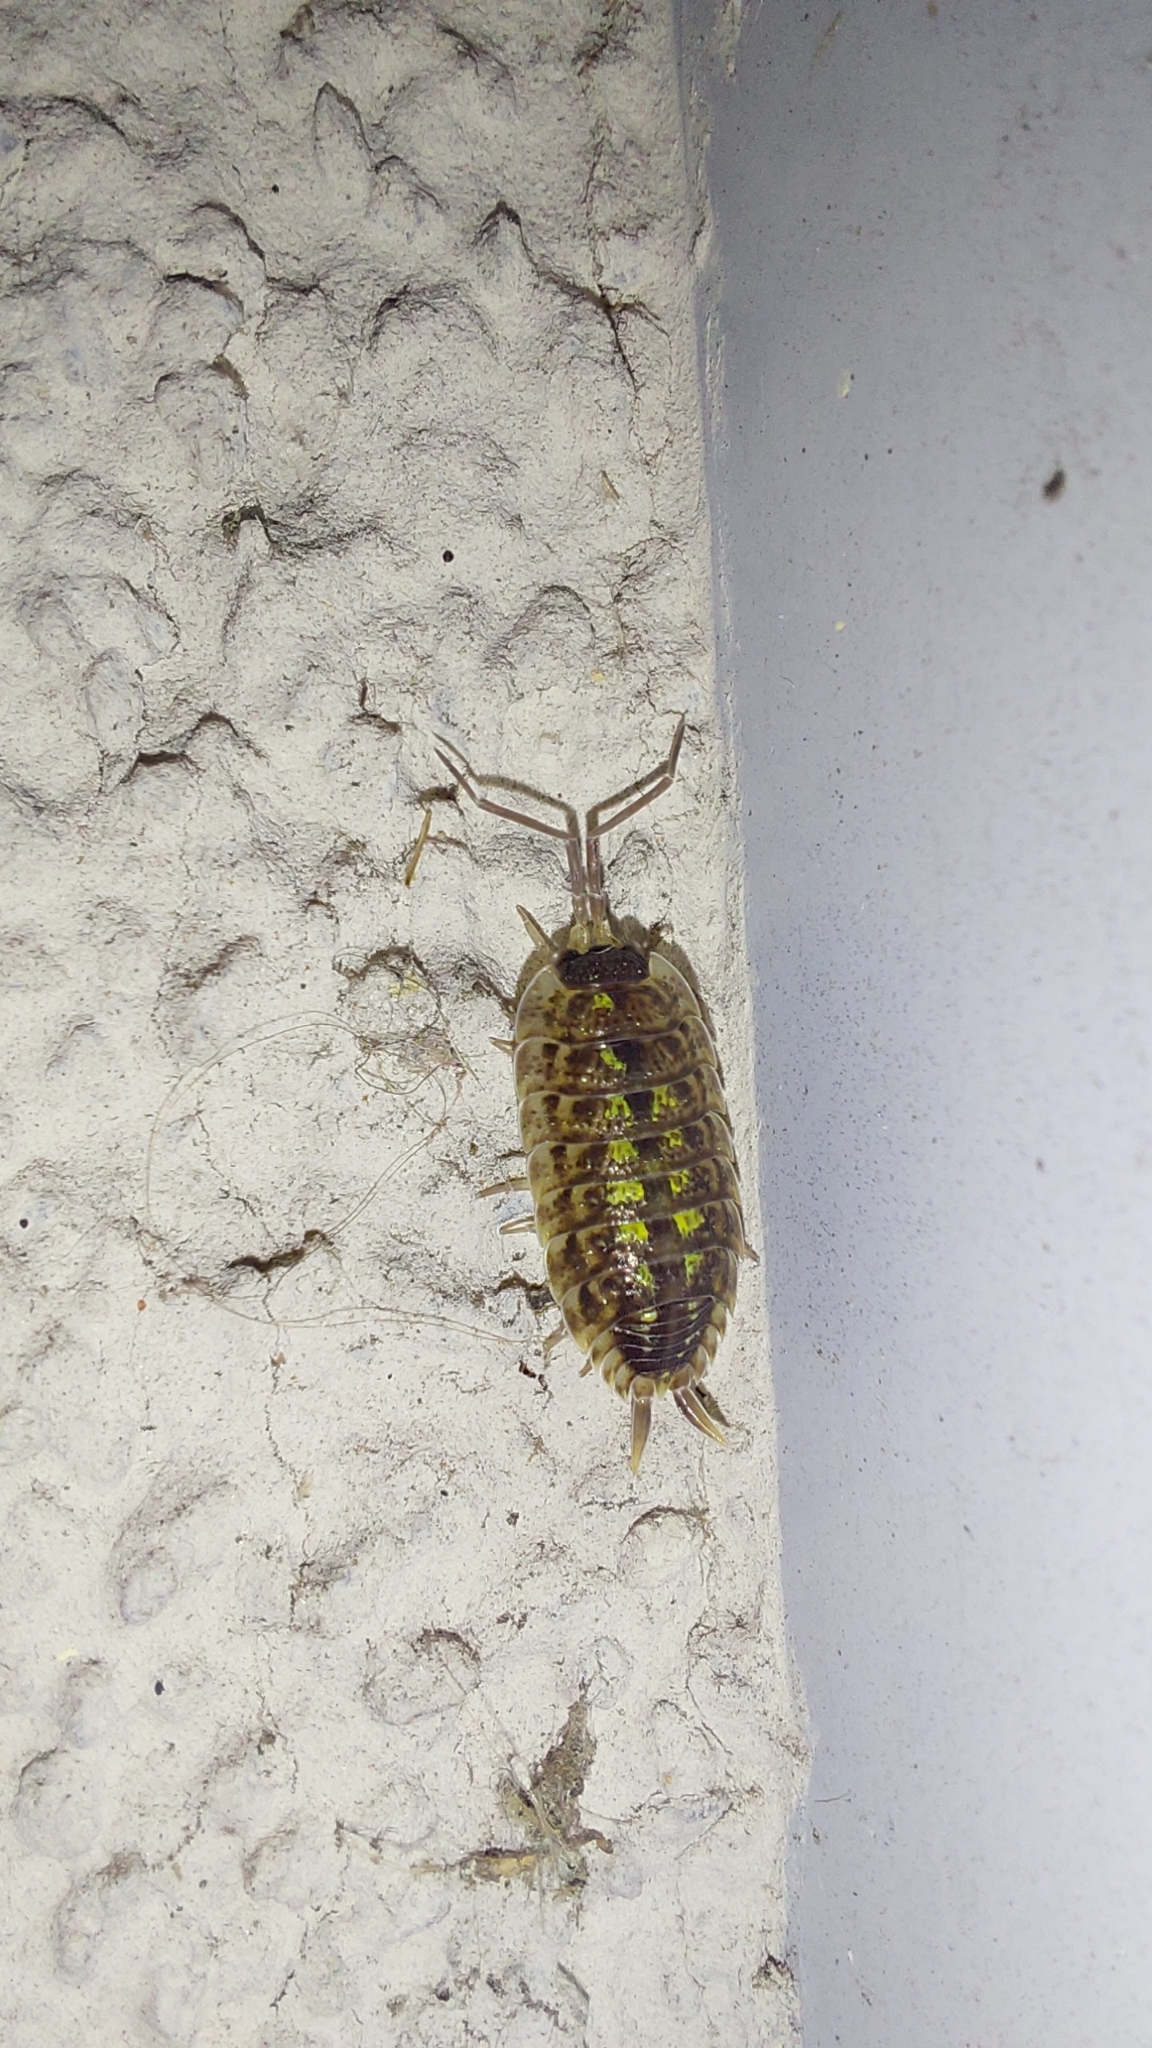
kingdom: Animalia
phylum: Arthropoda
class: Malacostraca
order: Isopoda
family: Porcellionidae
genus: Porcellio
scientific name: Porcellio spinicornis
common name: Painted woodlouse
